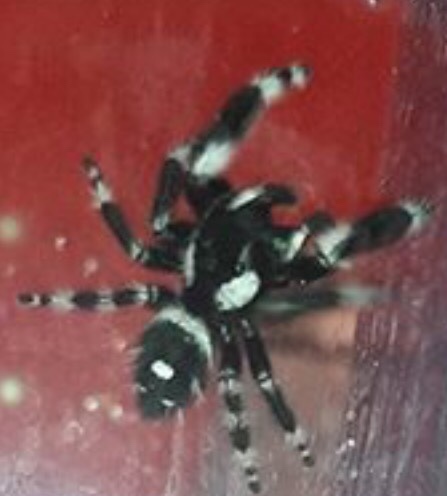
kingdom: Animalia
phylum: Arthropoda
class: Arachnida
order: Araneae
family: Salticidae
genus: Phidippus
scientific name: Phidippus audax
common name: Bold jumper
